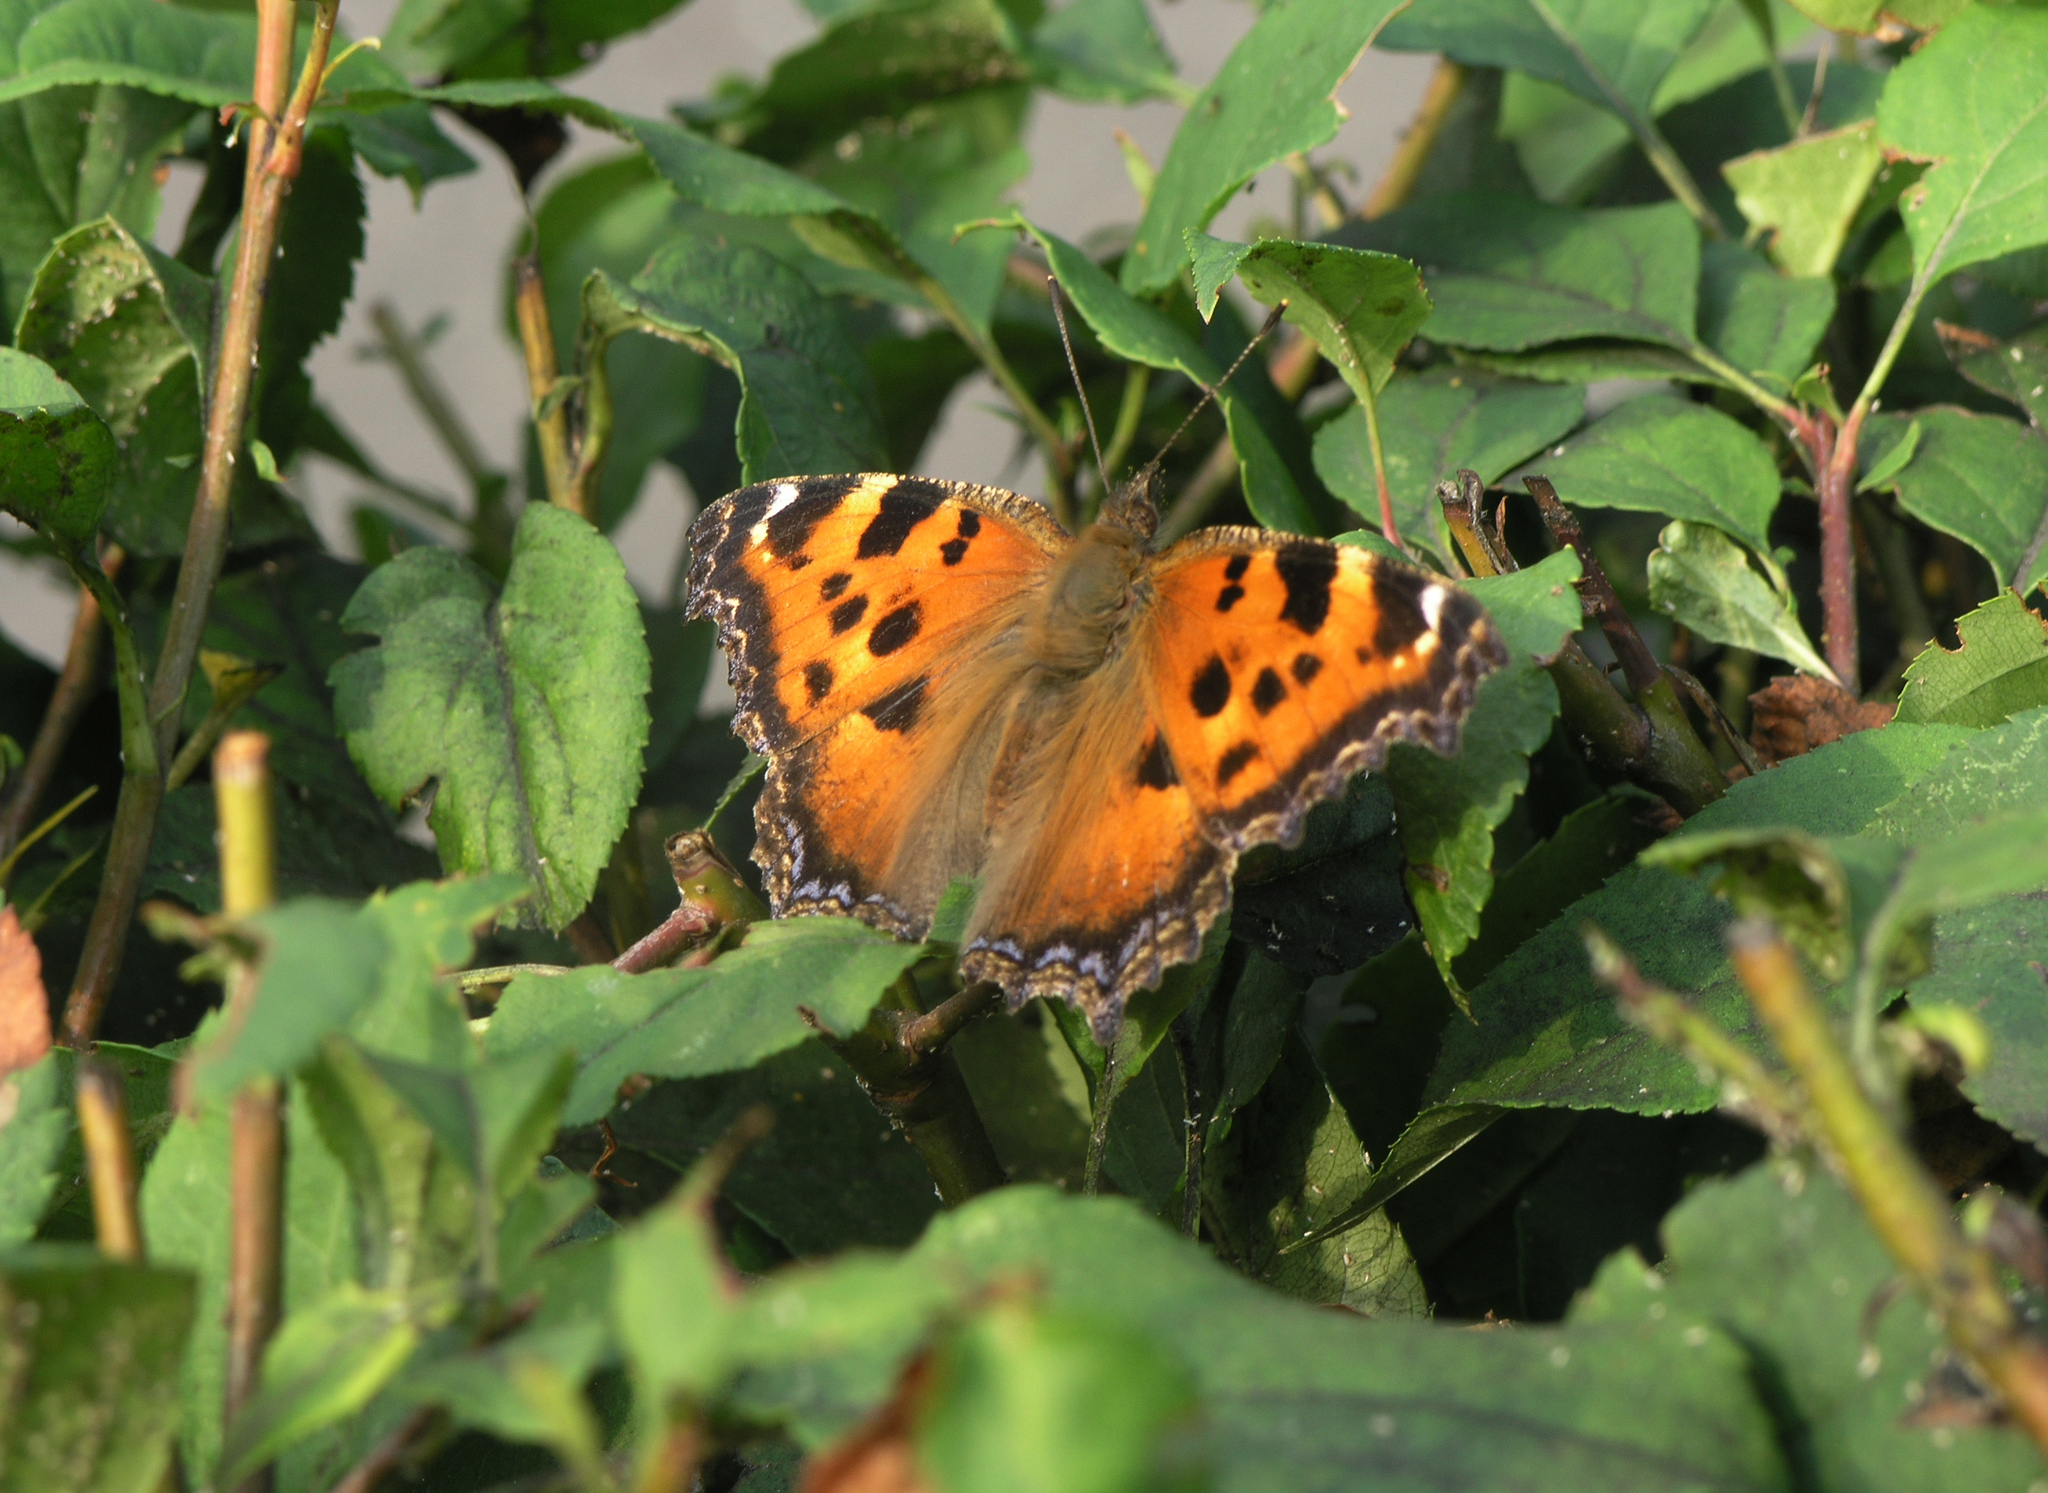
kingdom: Animalia
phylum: Arthropoda
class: Insecta
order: Lepidoptera
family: Nymphalidae
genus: Nymphalis
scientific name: Nymphalis xanthomelas
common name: Scarce tortoiseshell
